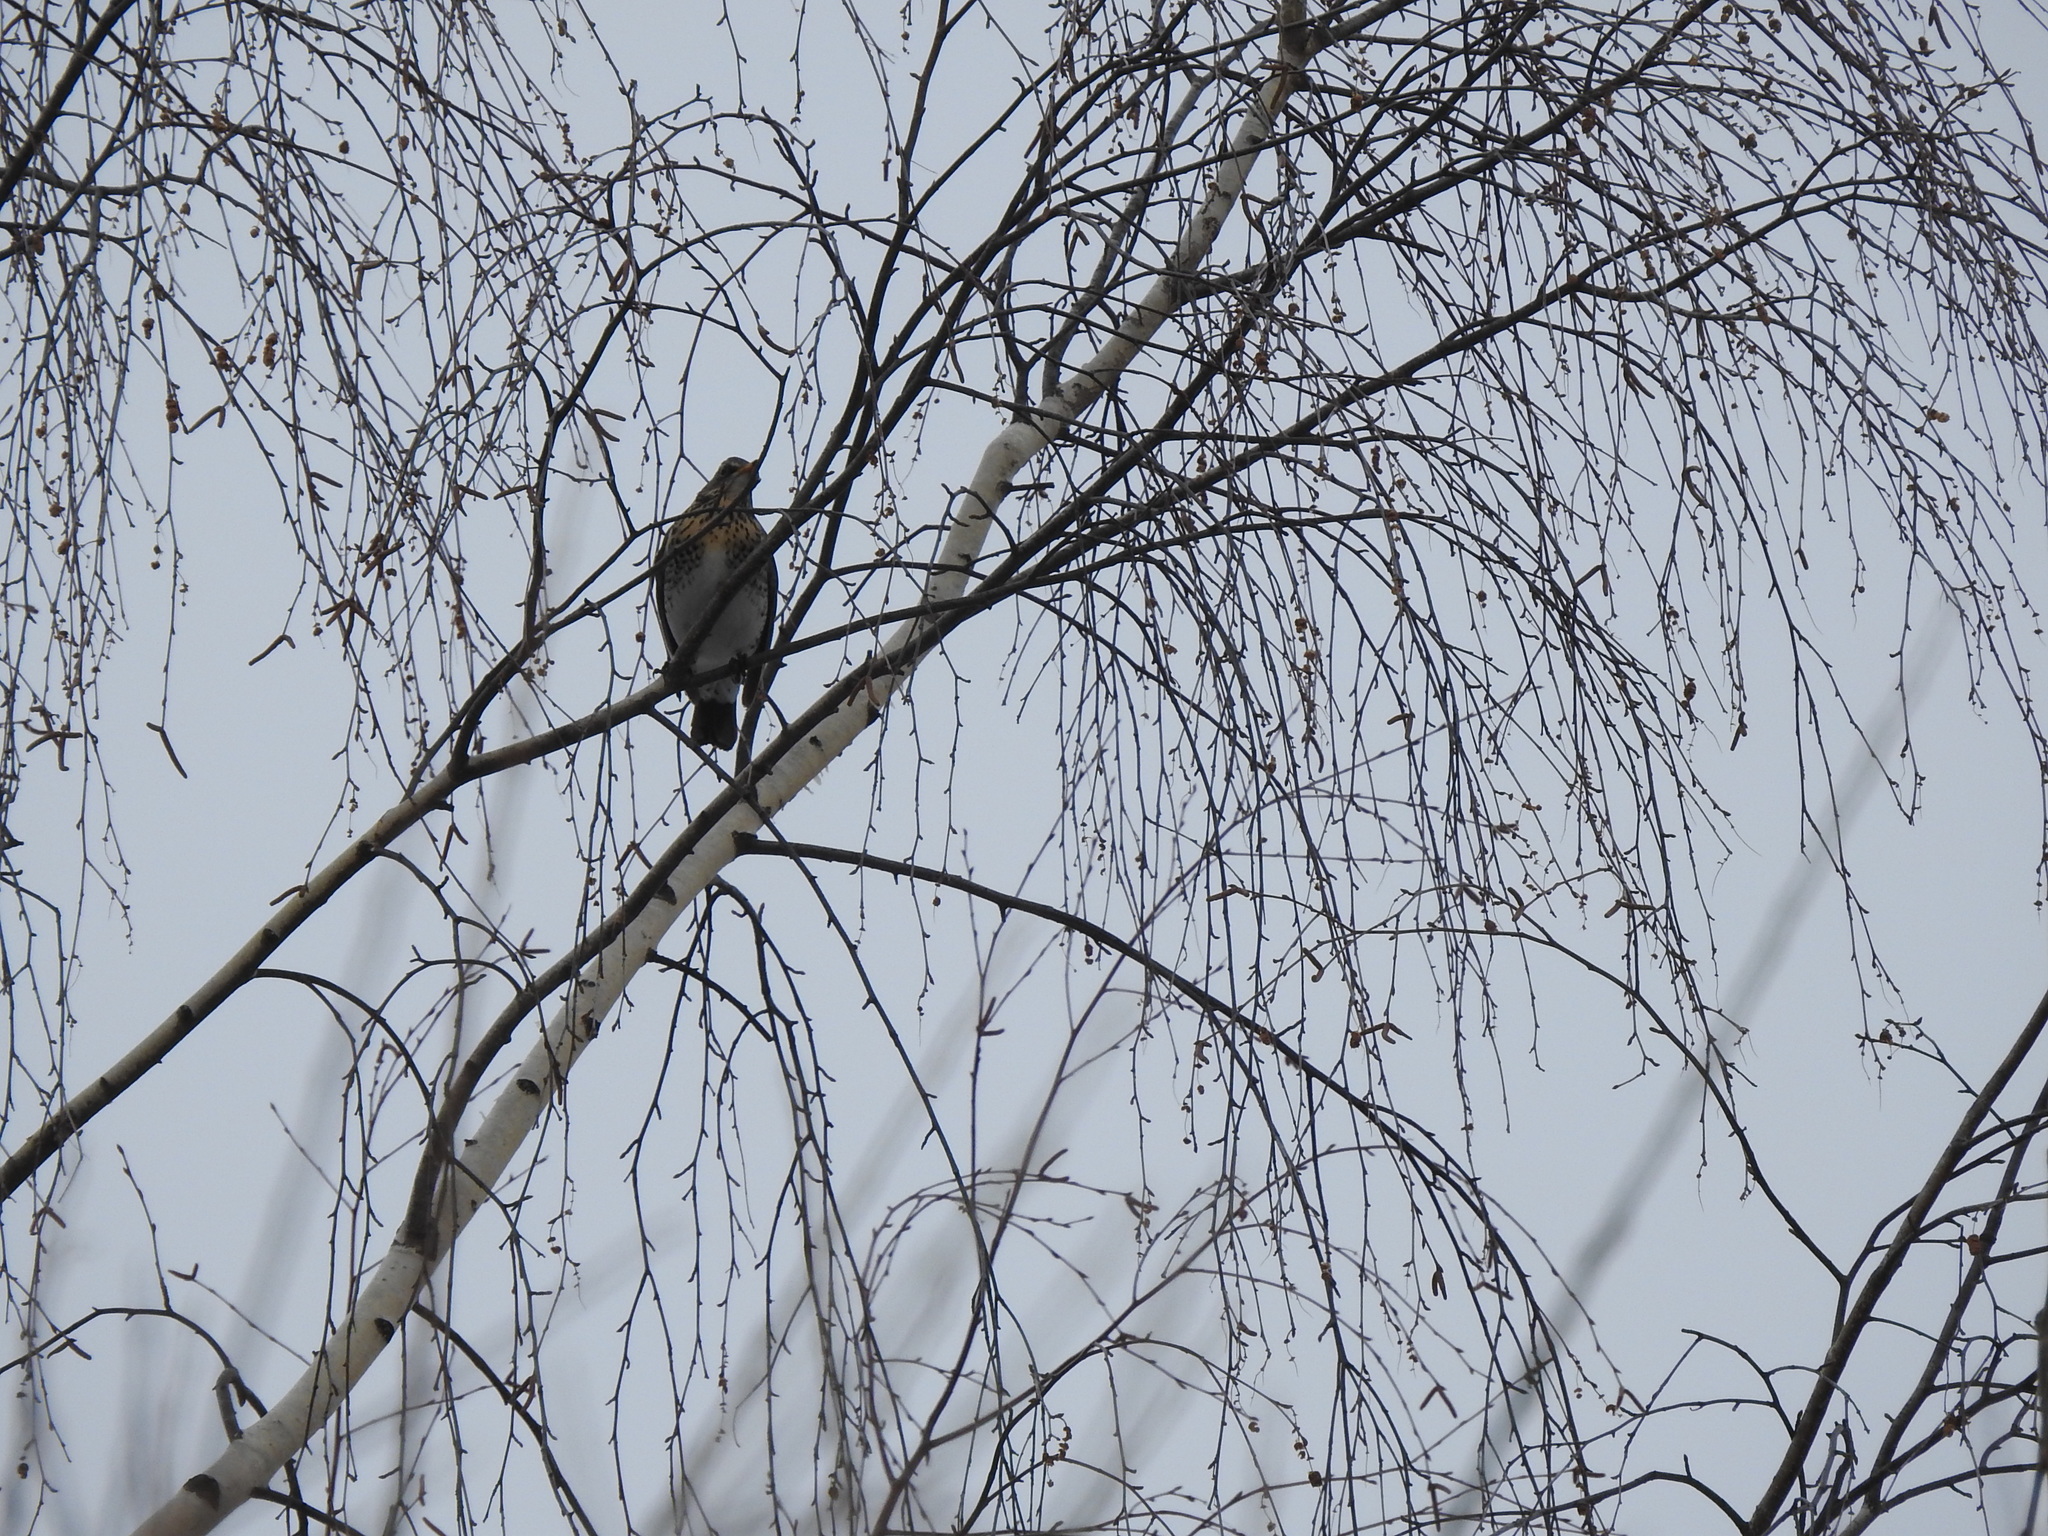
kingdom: Animalia
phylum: Chordata
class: Aves
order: Passeriformes
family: Turdidae
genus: Turdus
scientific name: Turdus pilaris
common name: Fieldfare
